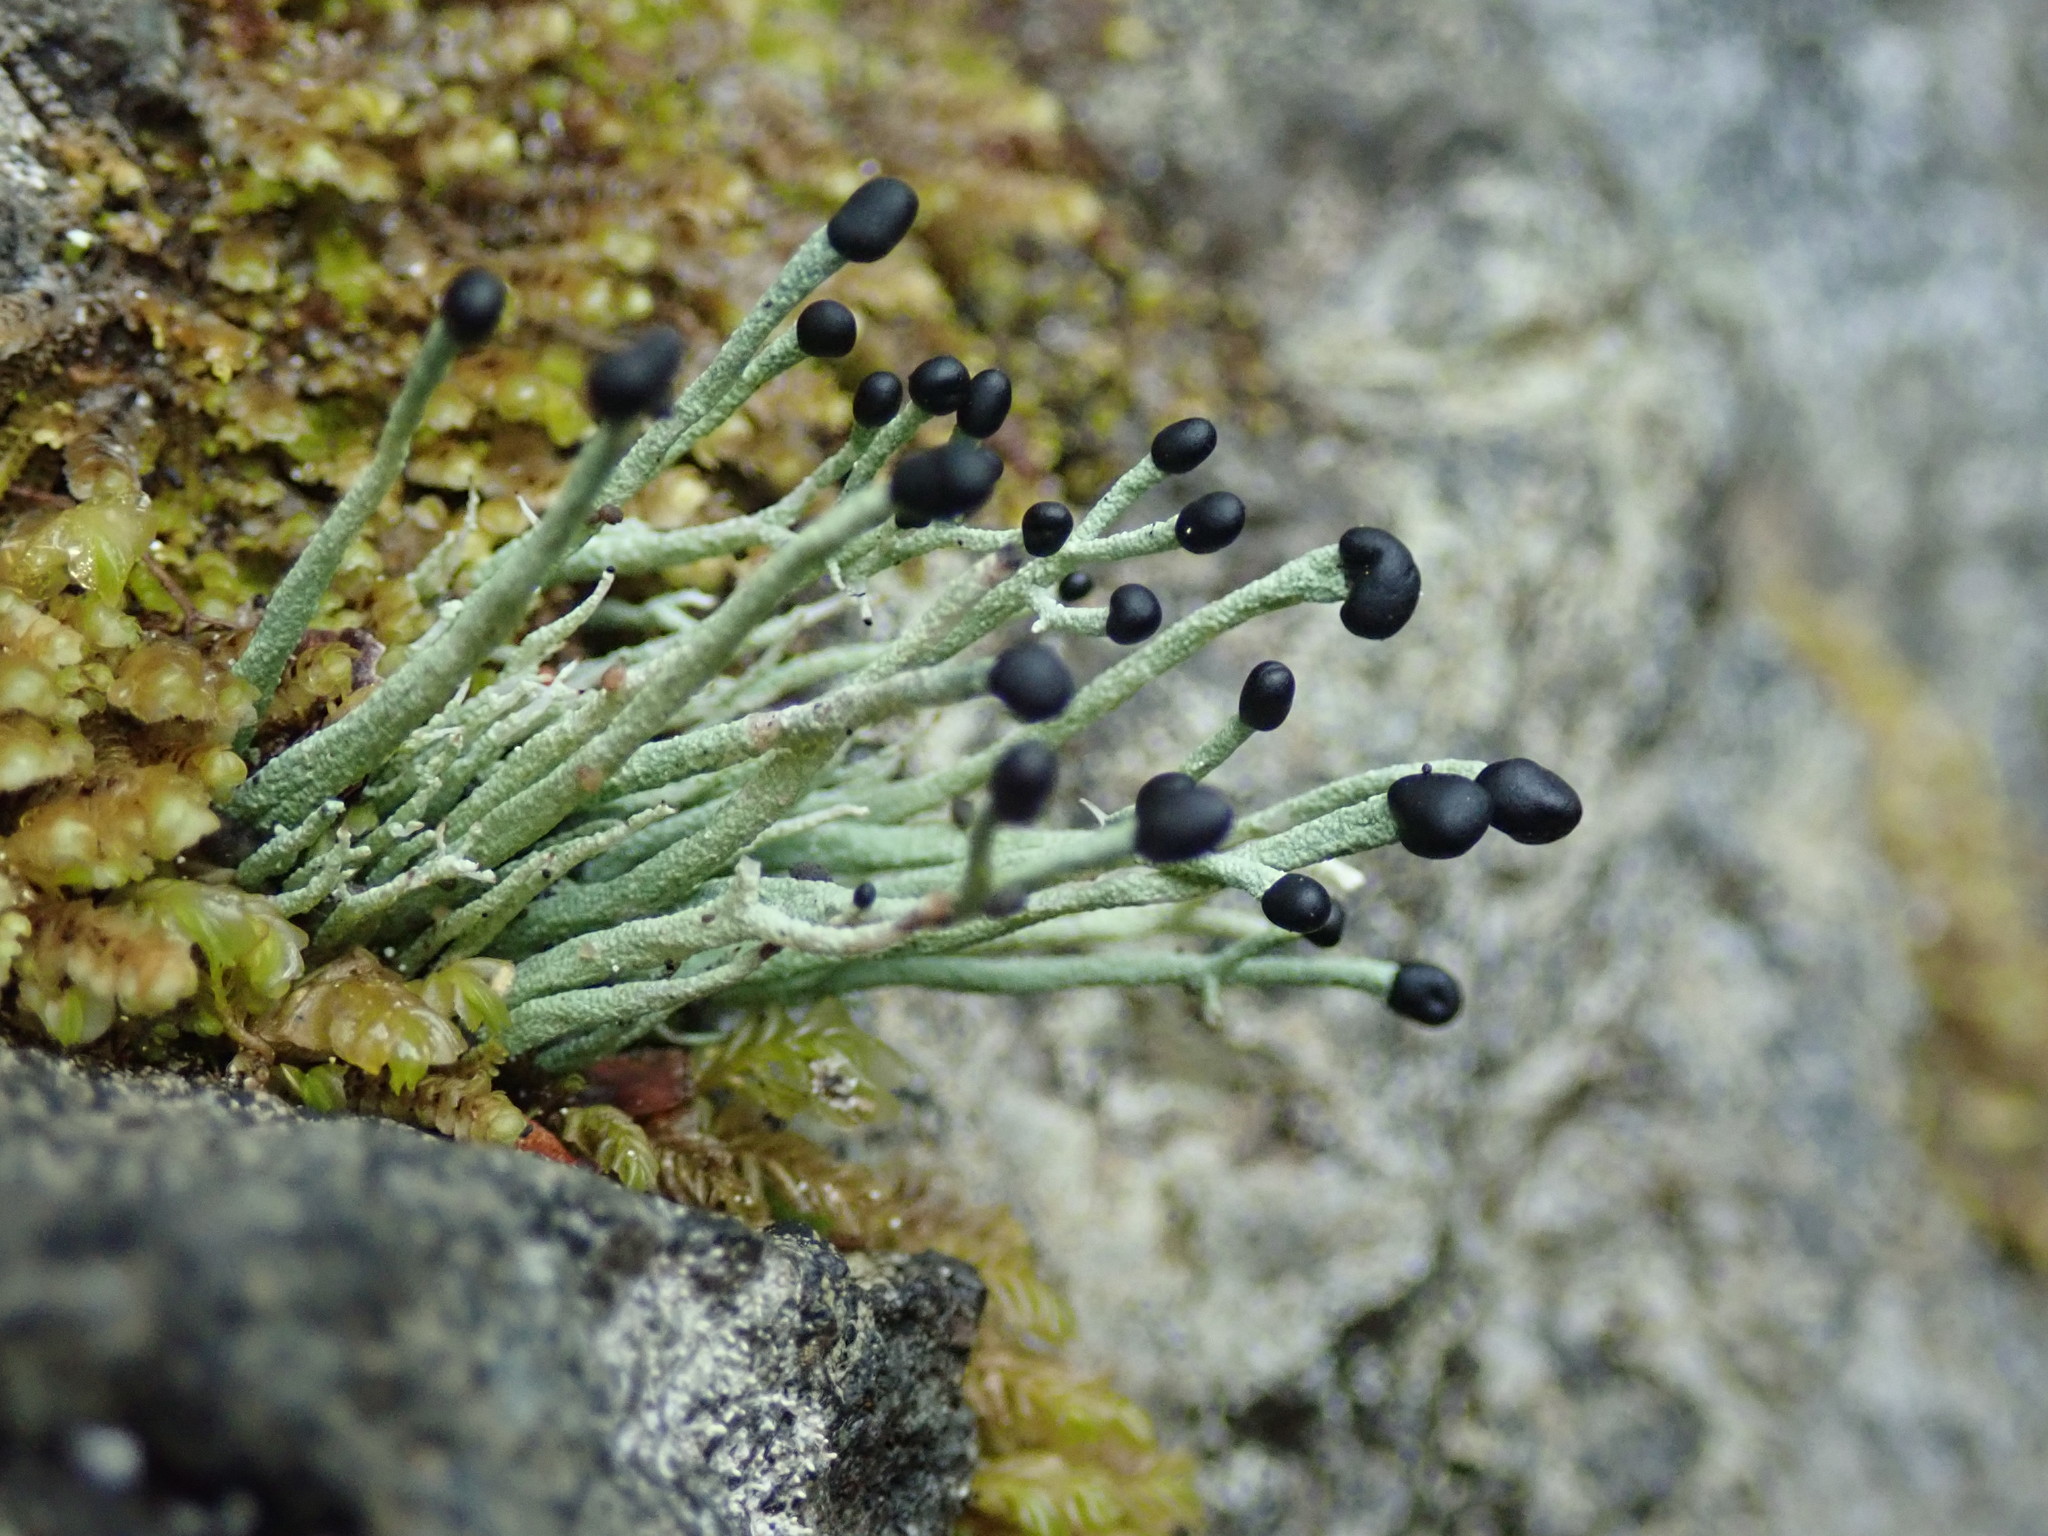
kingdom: Fungi
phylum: Ascomycota
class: Lecanoromycetes
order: Lecanorales
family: Cladoniaceae
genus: Pilophorus
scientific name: Pilophorus acicularis
